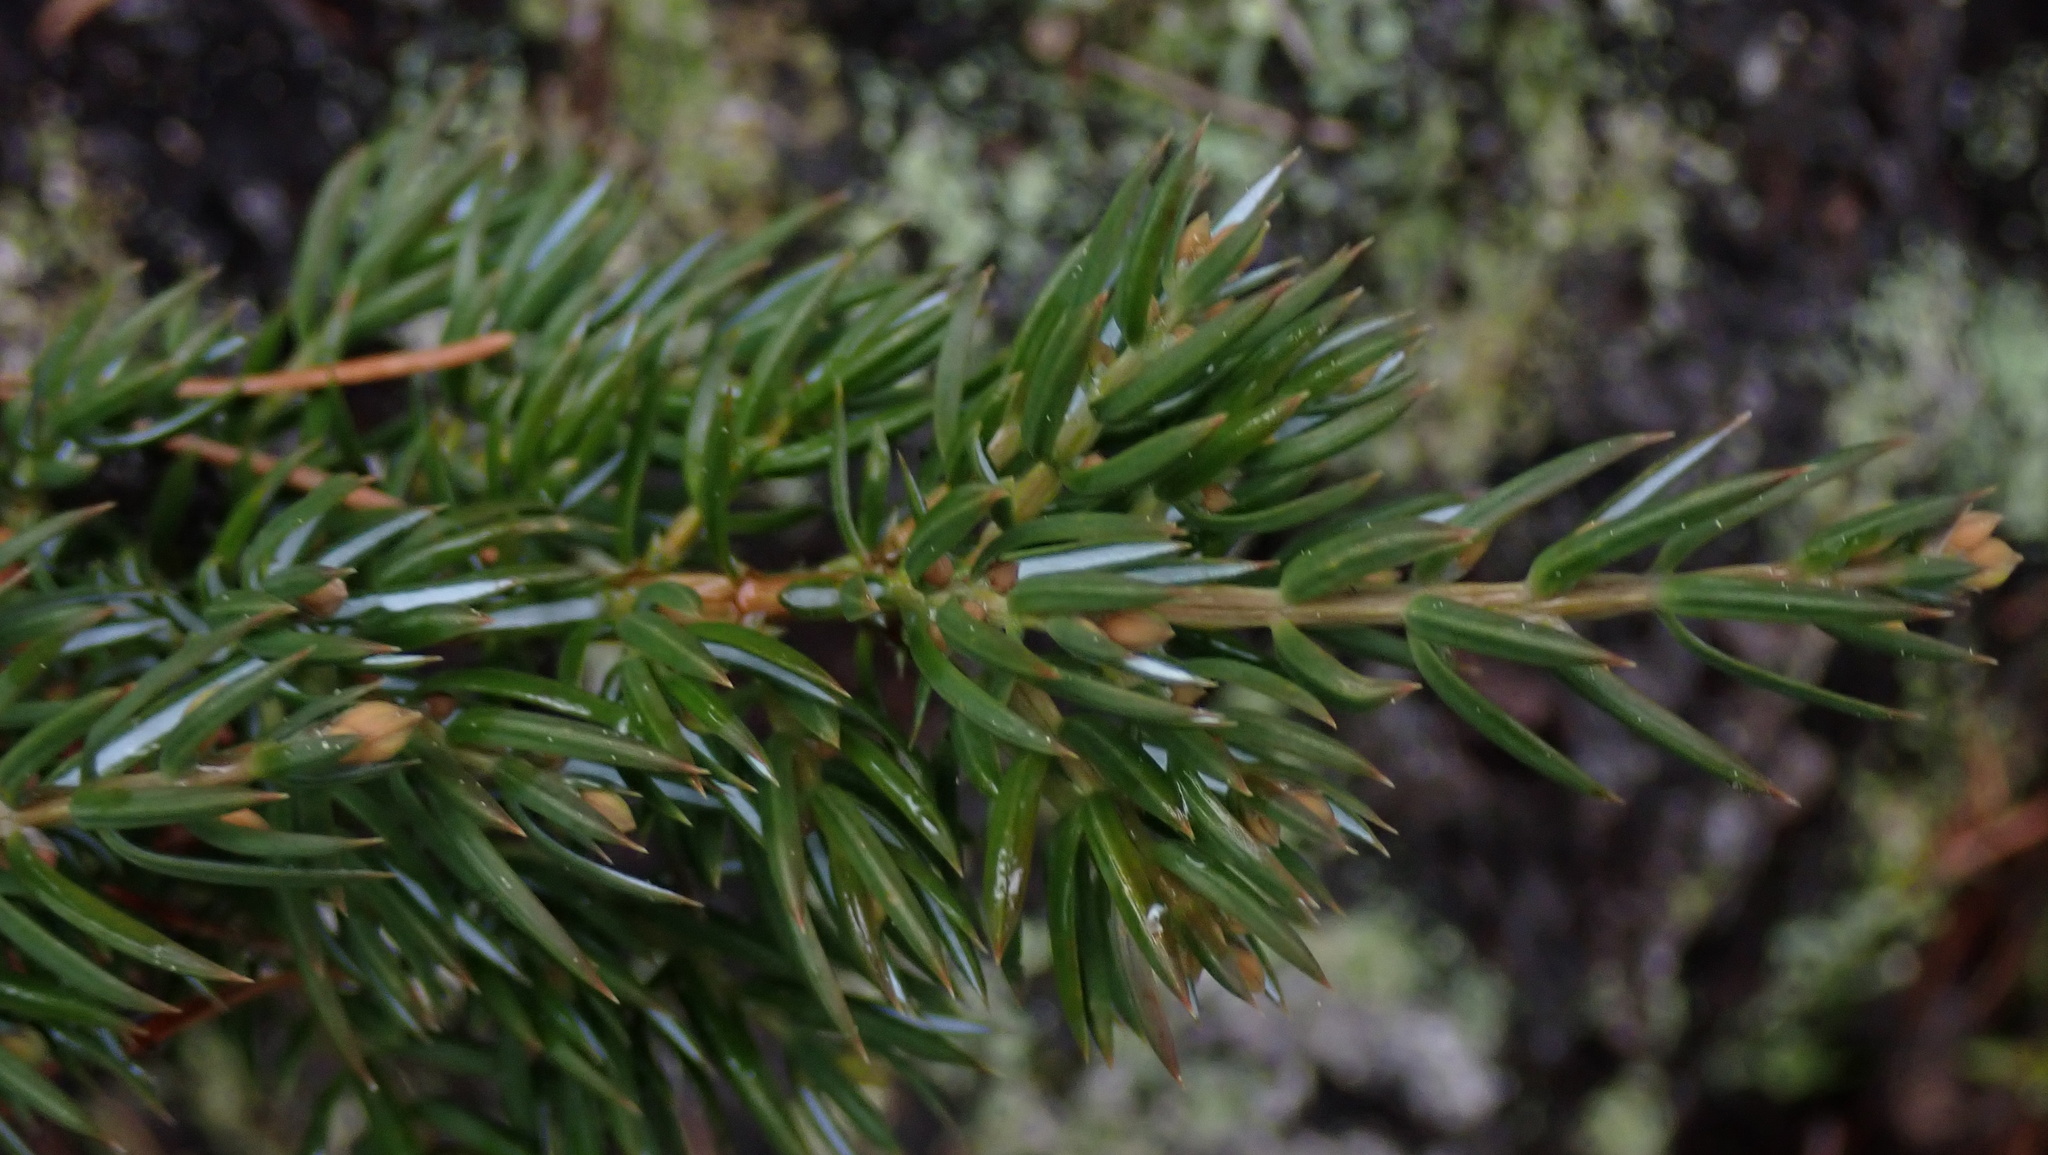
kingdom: Plantae
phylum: Tracheophyta
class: Pinopsida
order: Pinales
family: Cupressaceae
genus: Juniperus
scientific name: Juniperus communis
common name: Common juniper
